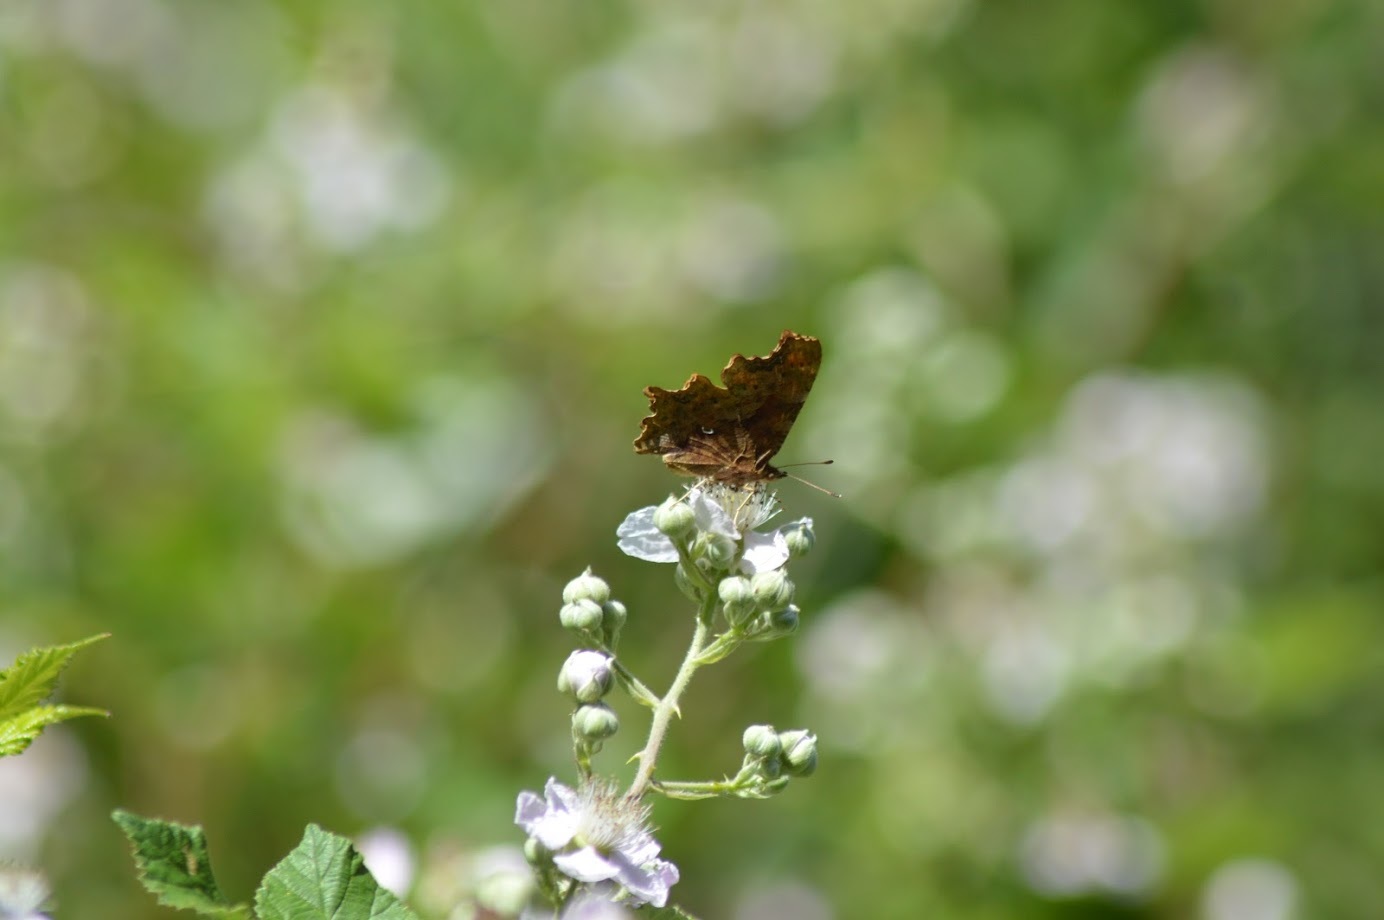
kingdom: Animalia
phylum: Arthropoda
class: Insecta
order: Lepidoptera
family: Nymphalidae
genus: Polygonia
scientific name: Polygonia c-album
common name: Comma
